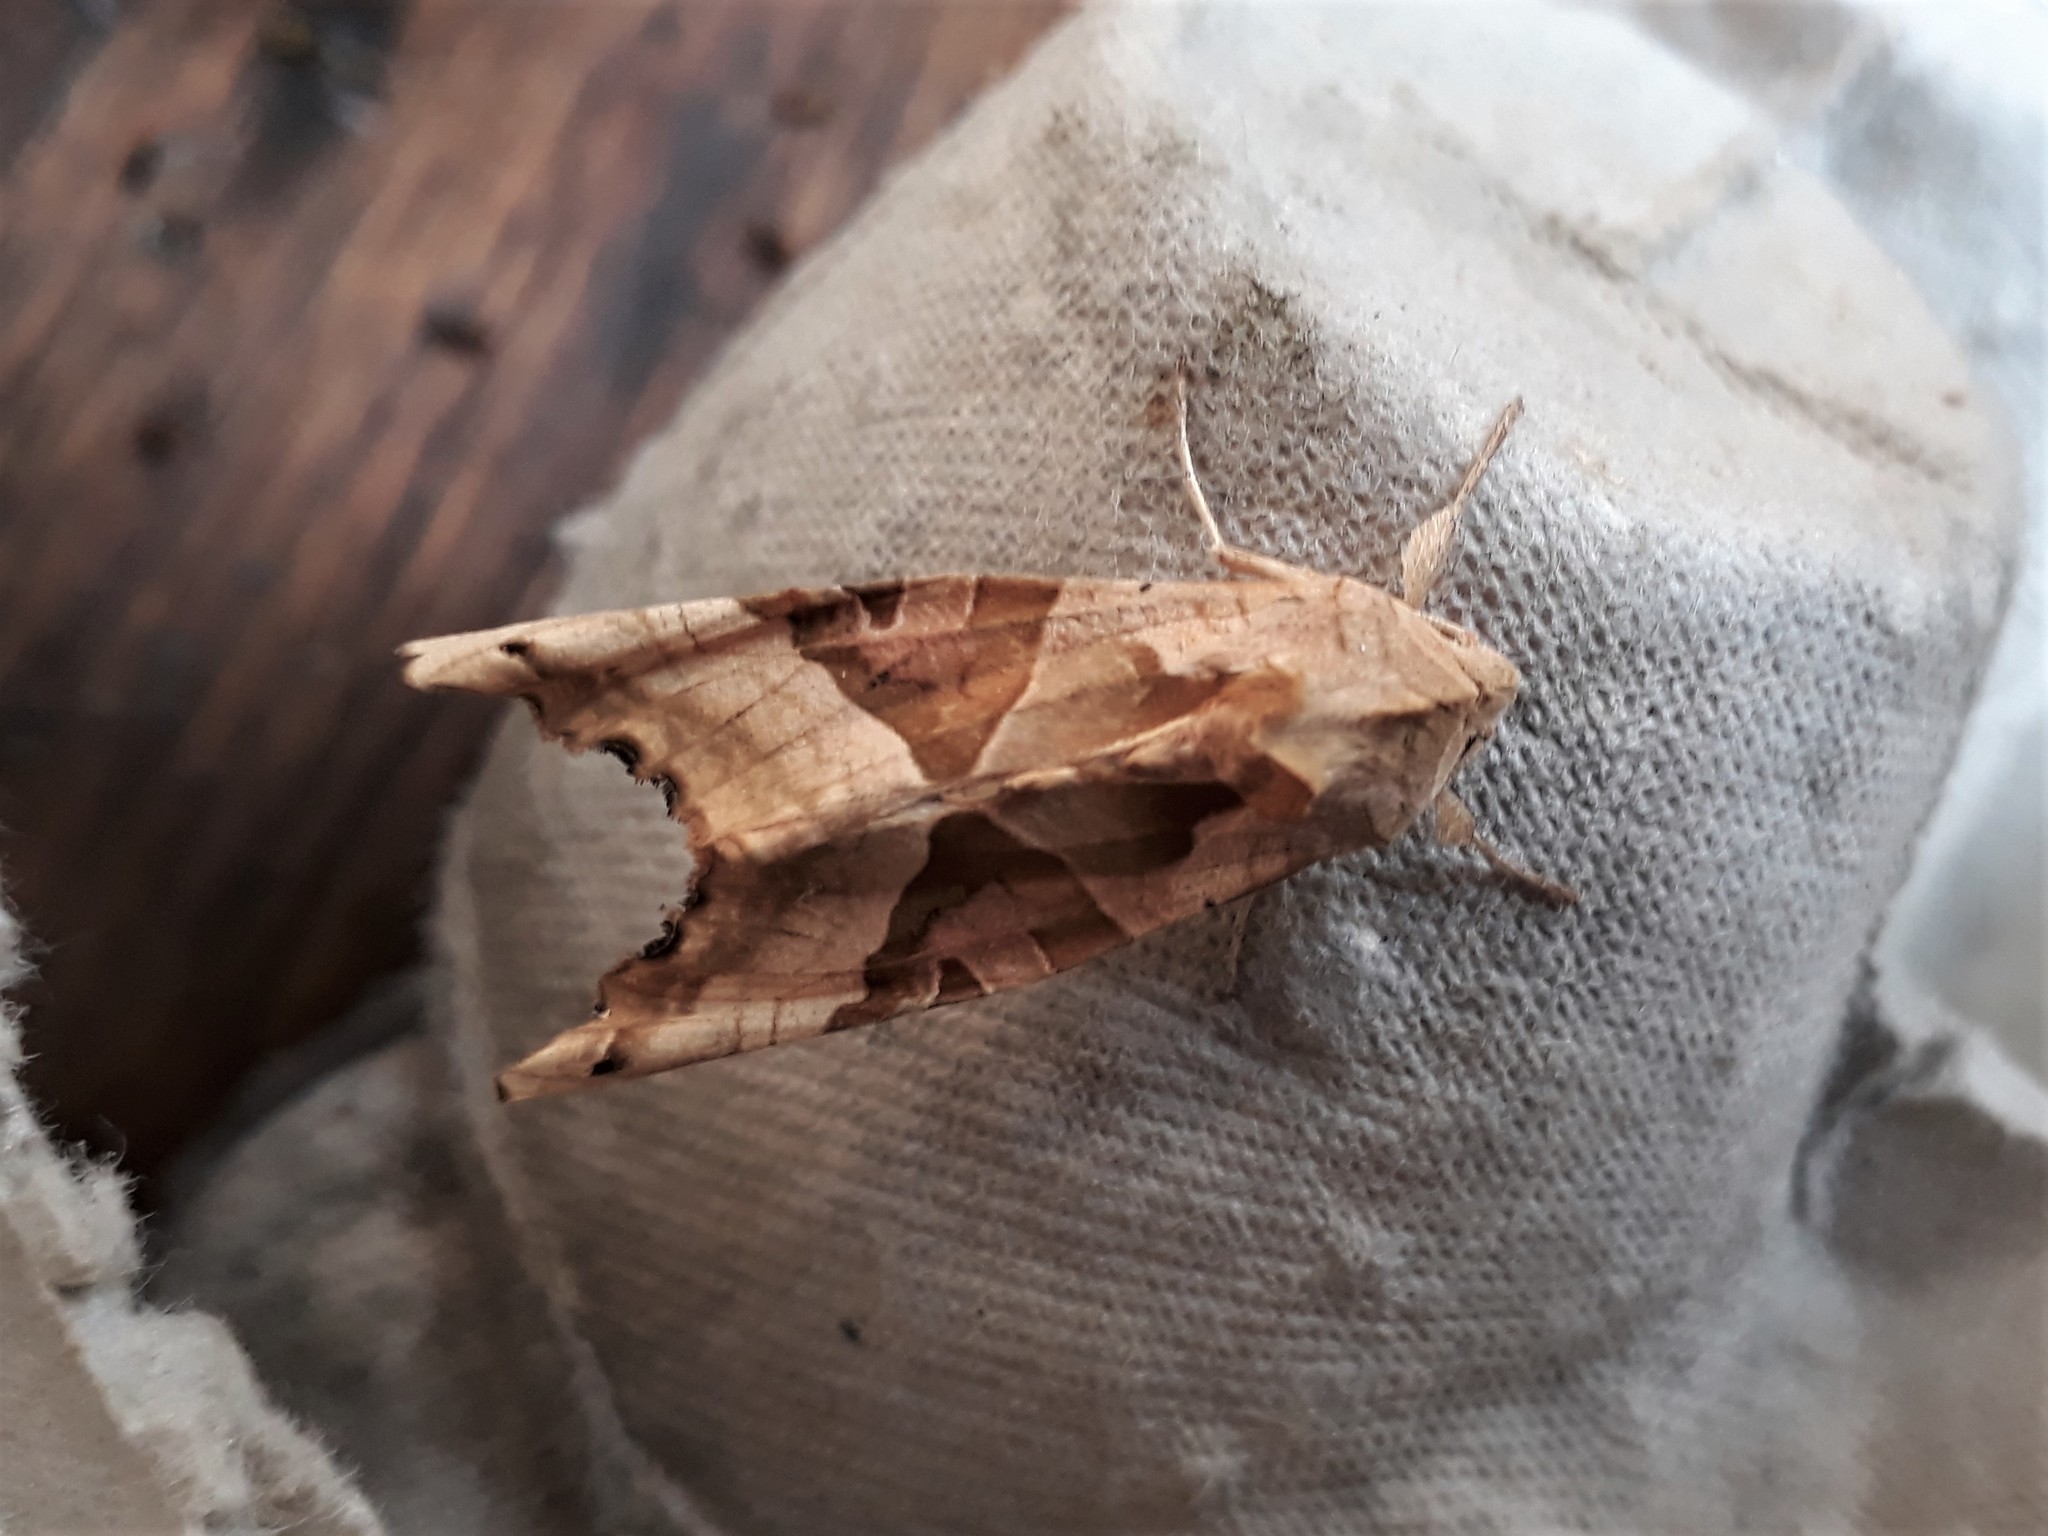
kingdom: Animalia
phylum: Arthropoda
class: Insecta
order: Lepidoptera
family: Noctuidae
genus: Phlogophora
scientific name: Phlogophora meticulosa
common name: Angle shades
